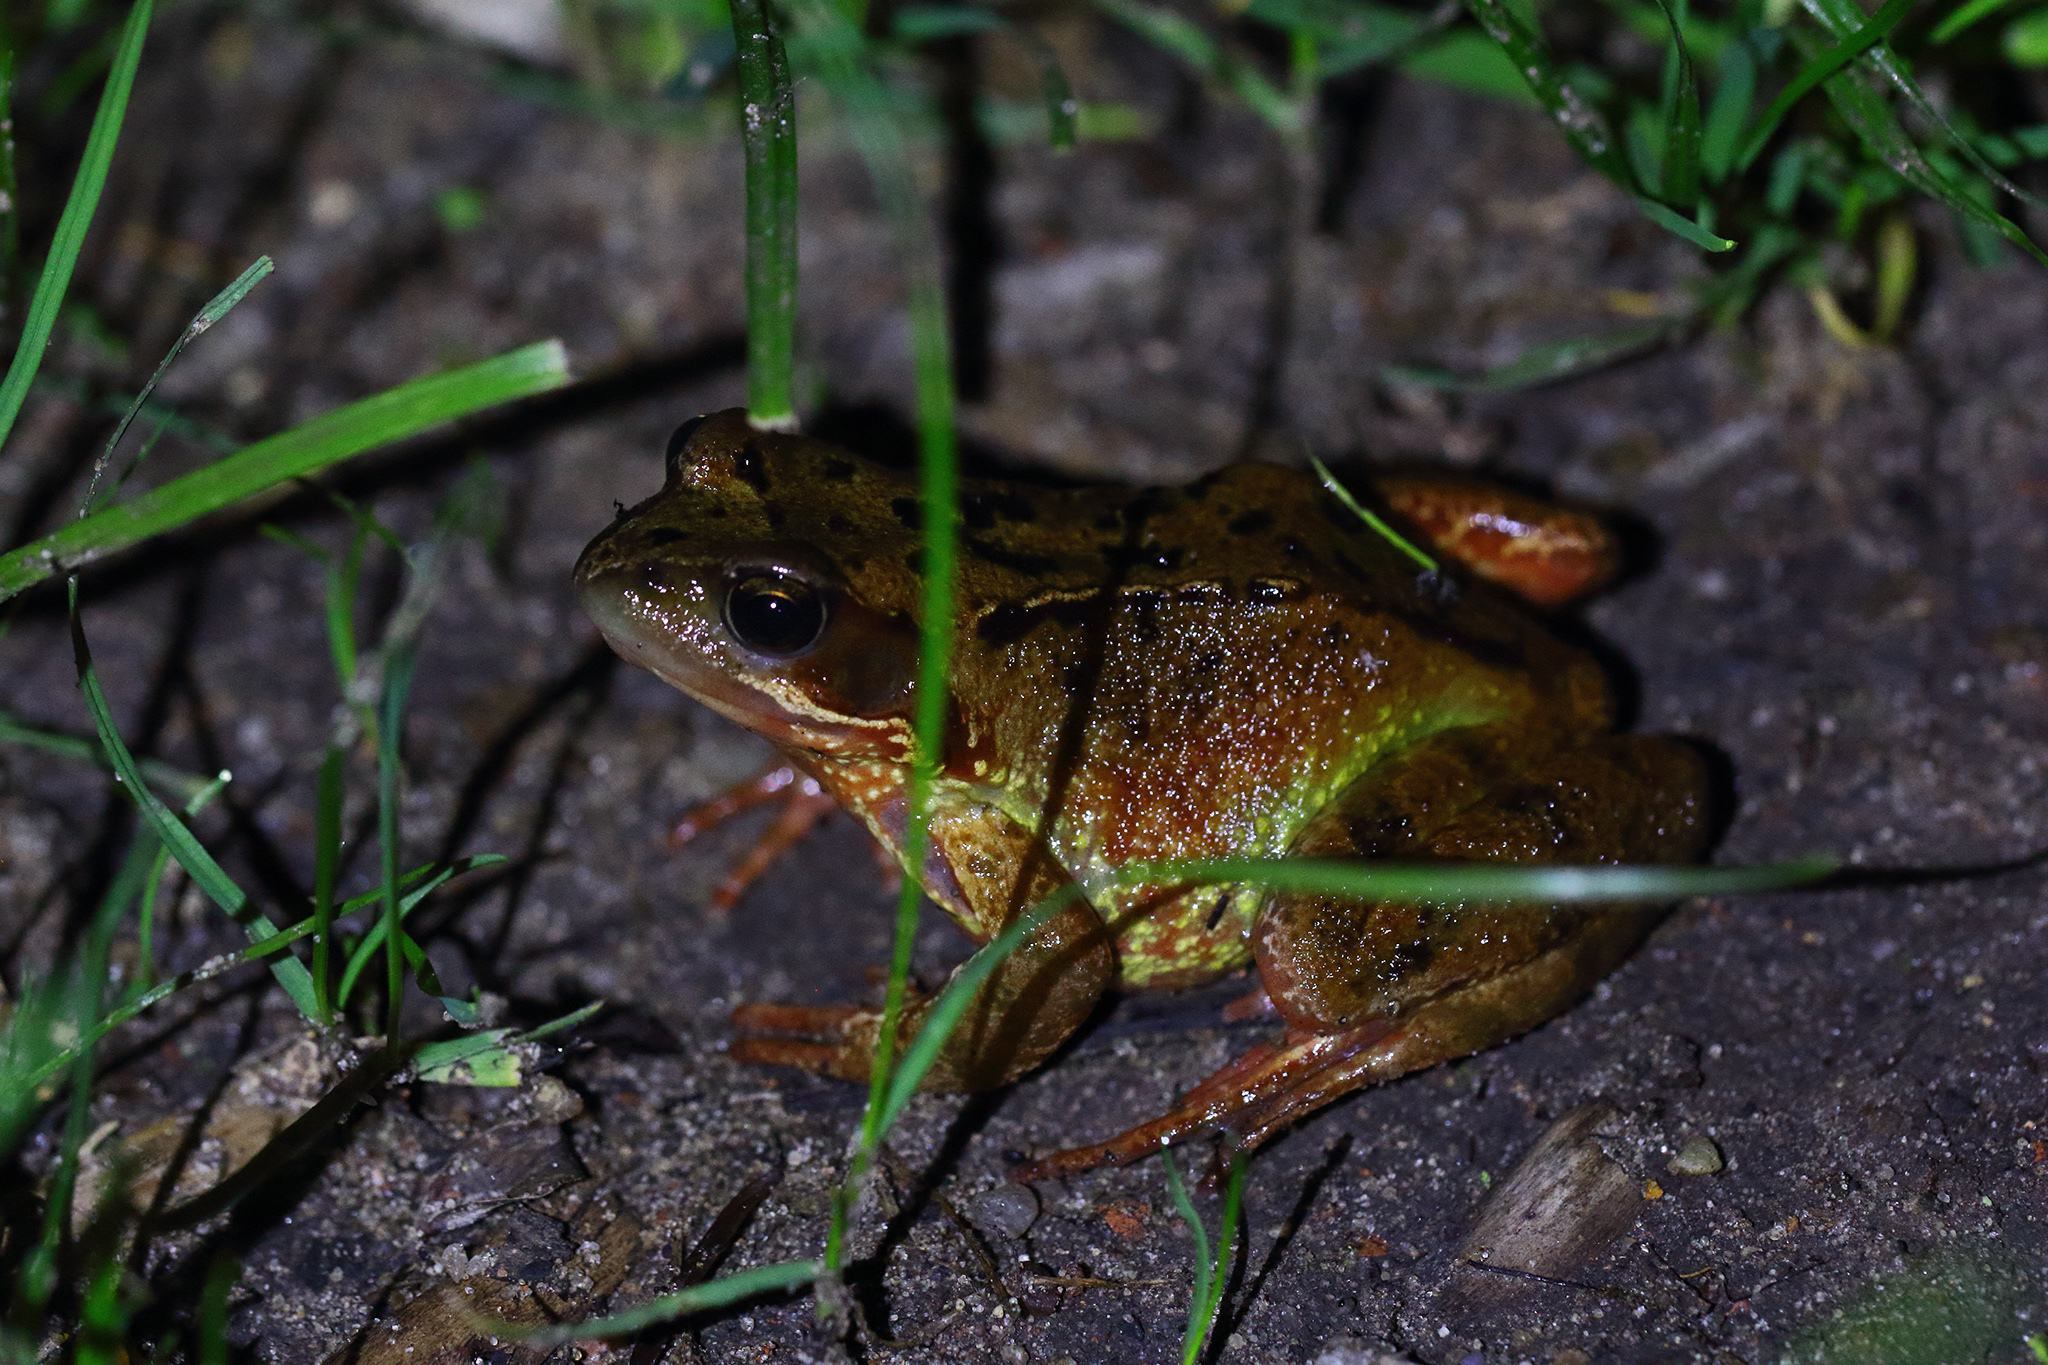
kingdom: Animalia
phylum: Chordata
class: Amphibia
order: Anura
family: Ranidae
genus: Rana
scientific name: Rana temporaria
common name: Common frog
